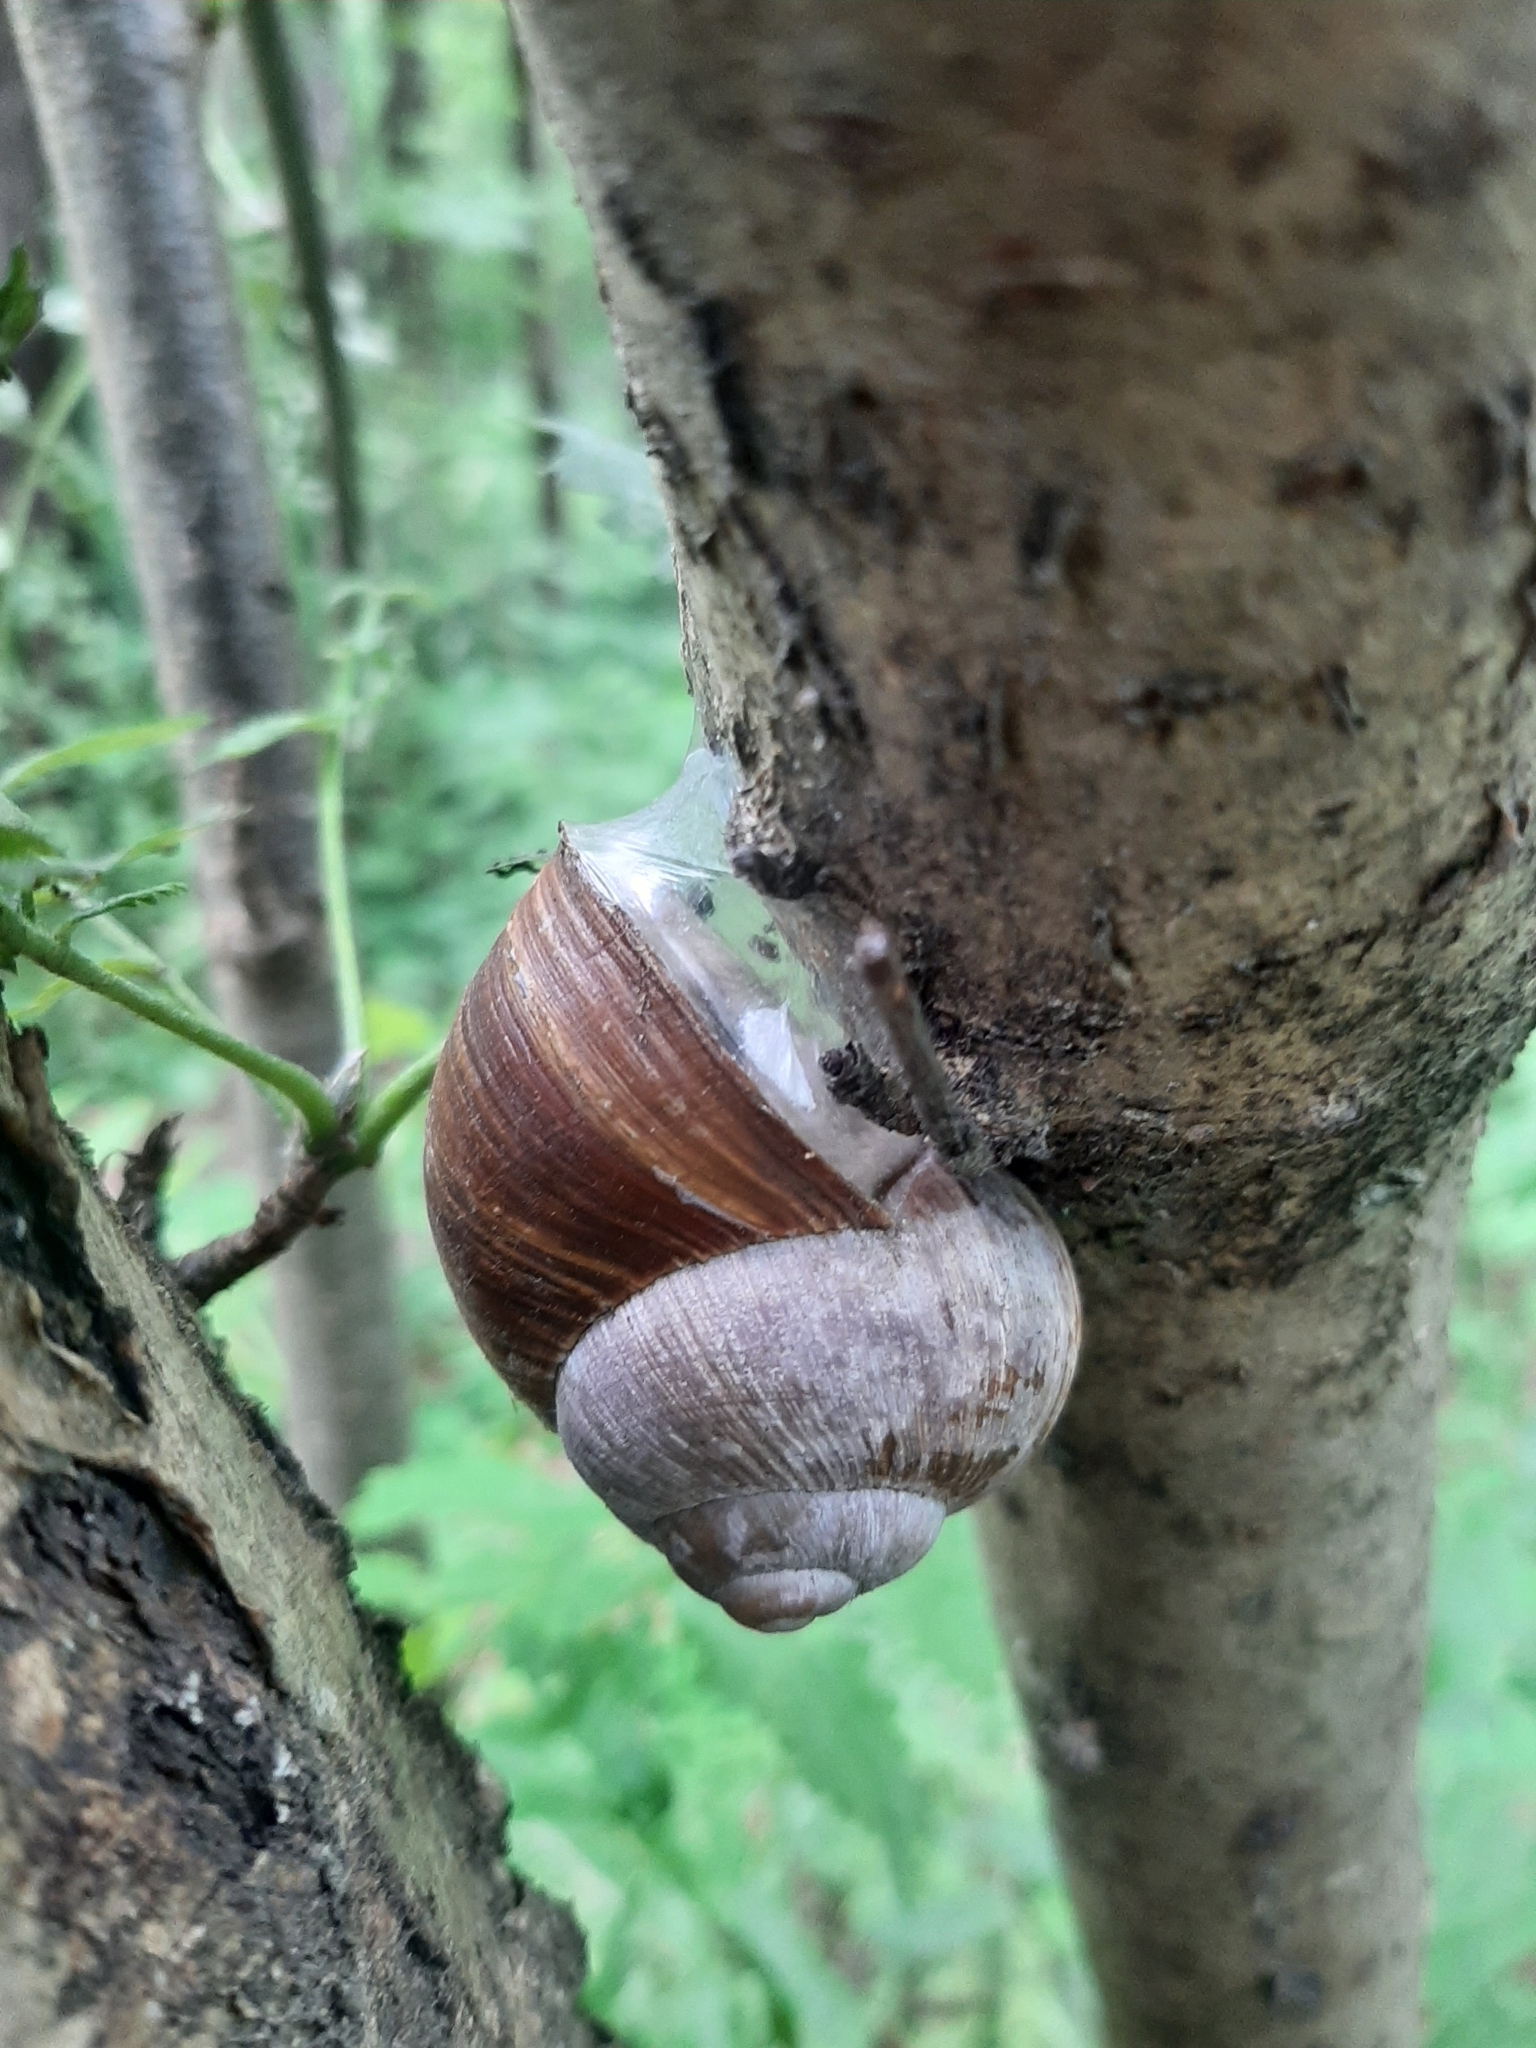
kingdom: Animalia
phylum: Mollusca
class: Gastropoda
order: Stylommatophora
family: Helicidae
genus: Helix
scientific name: Helix pomatia
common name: Roman snail
